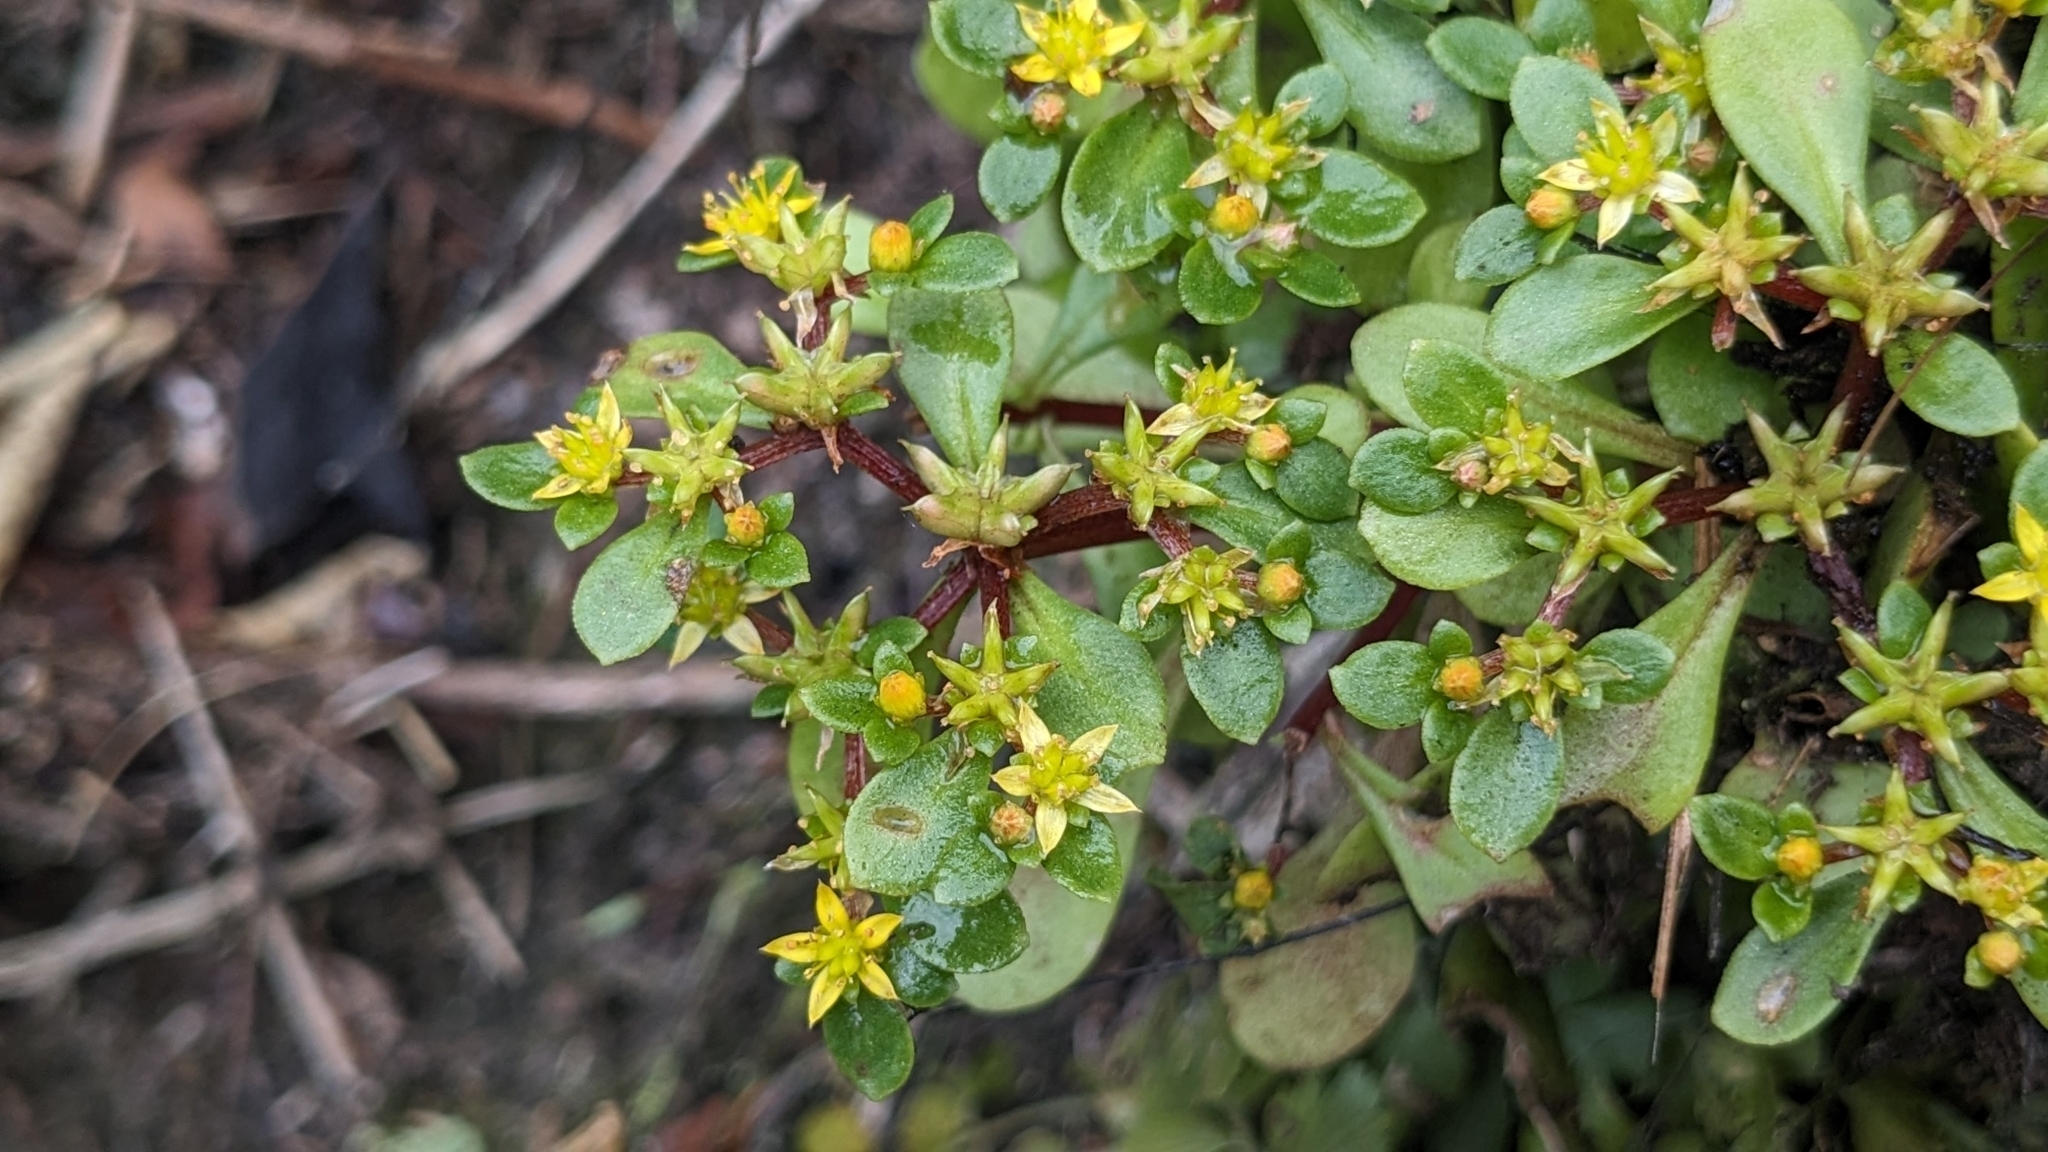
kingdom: Plantae
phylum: Tracheophyta
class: Magnoliopsida
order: Saxifragales
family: Crassulaceae
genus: Sedum
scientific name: Sedum actinocarpum
